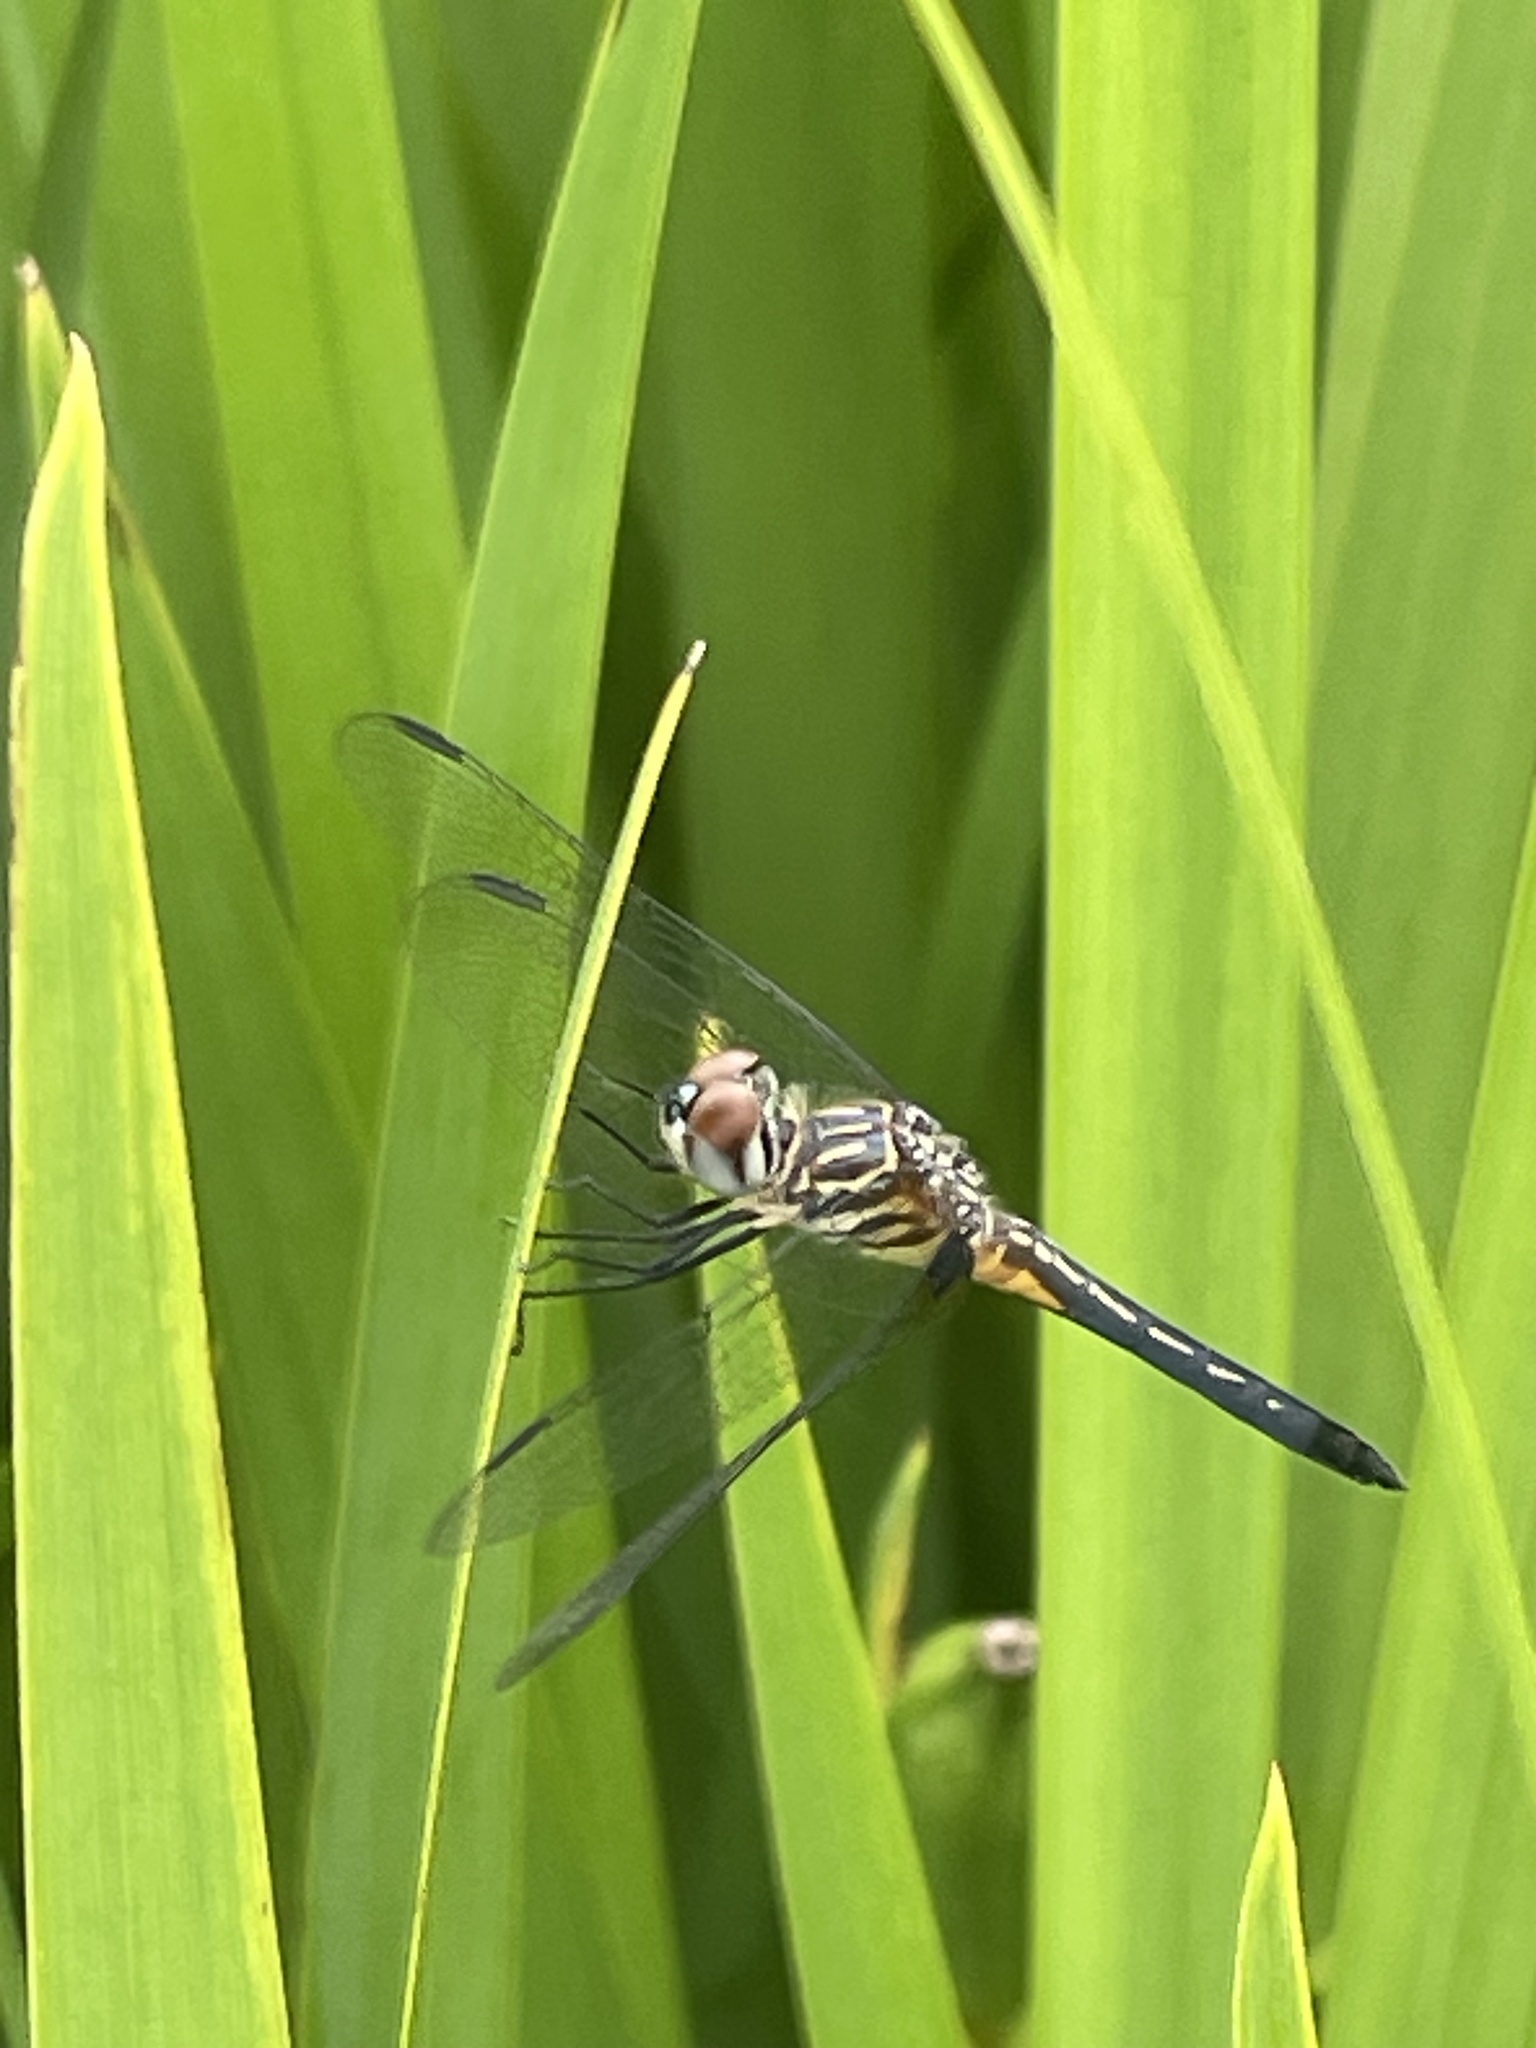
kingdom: Animalia
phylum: Arthropoda
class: Insecta
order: Odonata
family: Libellulidae
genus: Pachydiplax
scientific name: Pachydiplax longipennis
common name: Blue dasher
